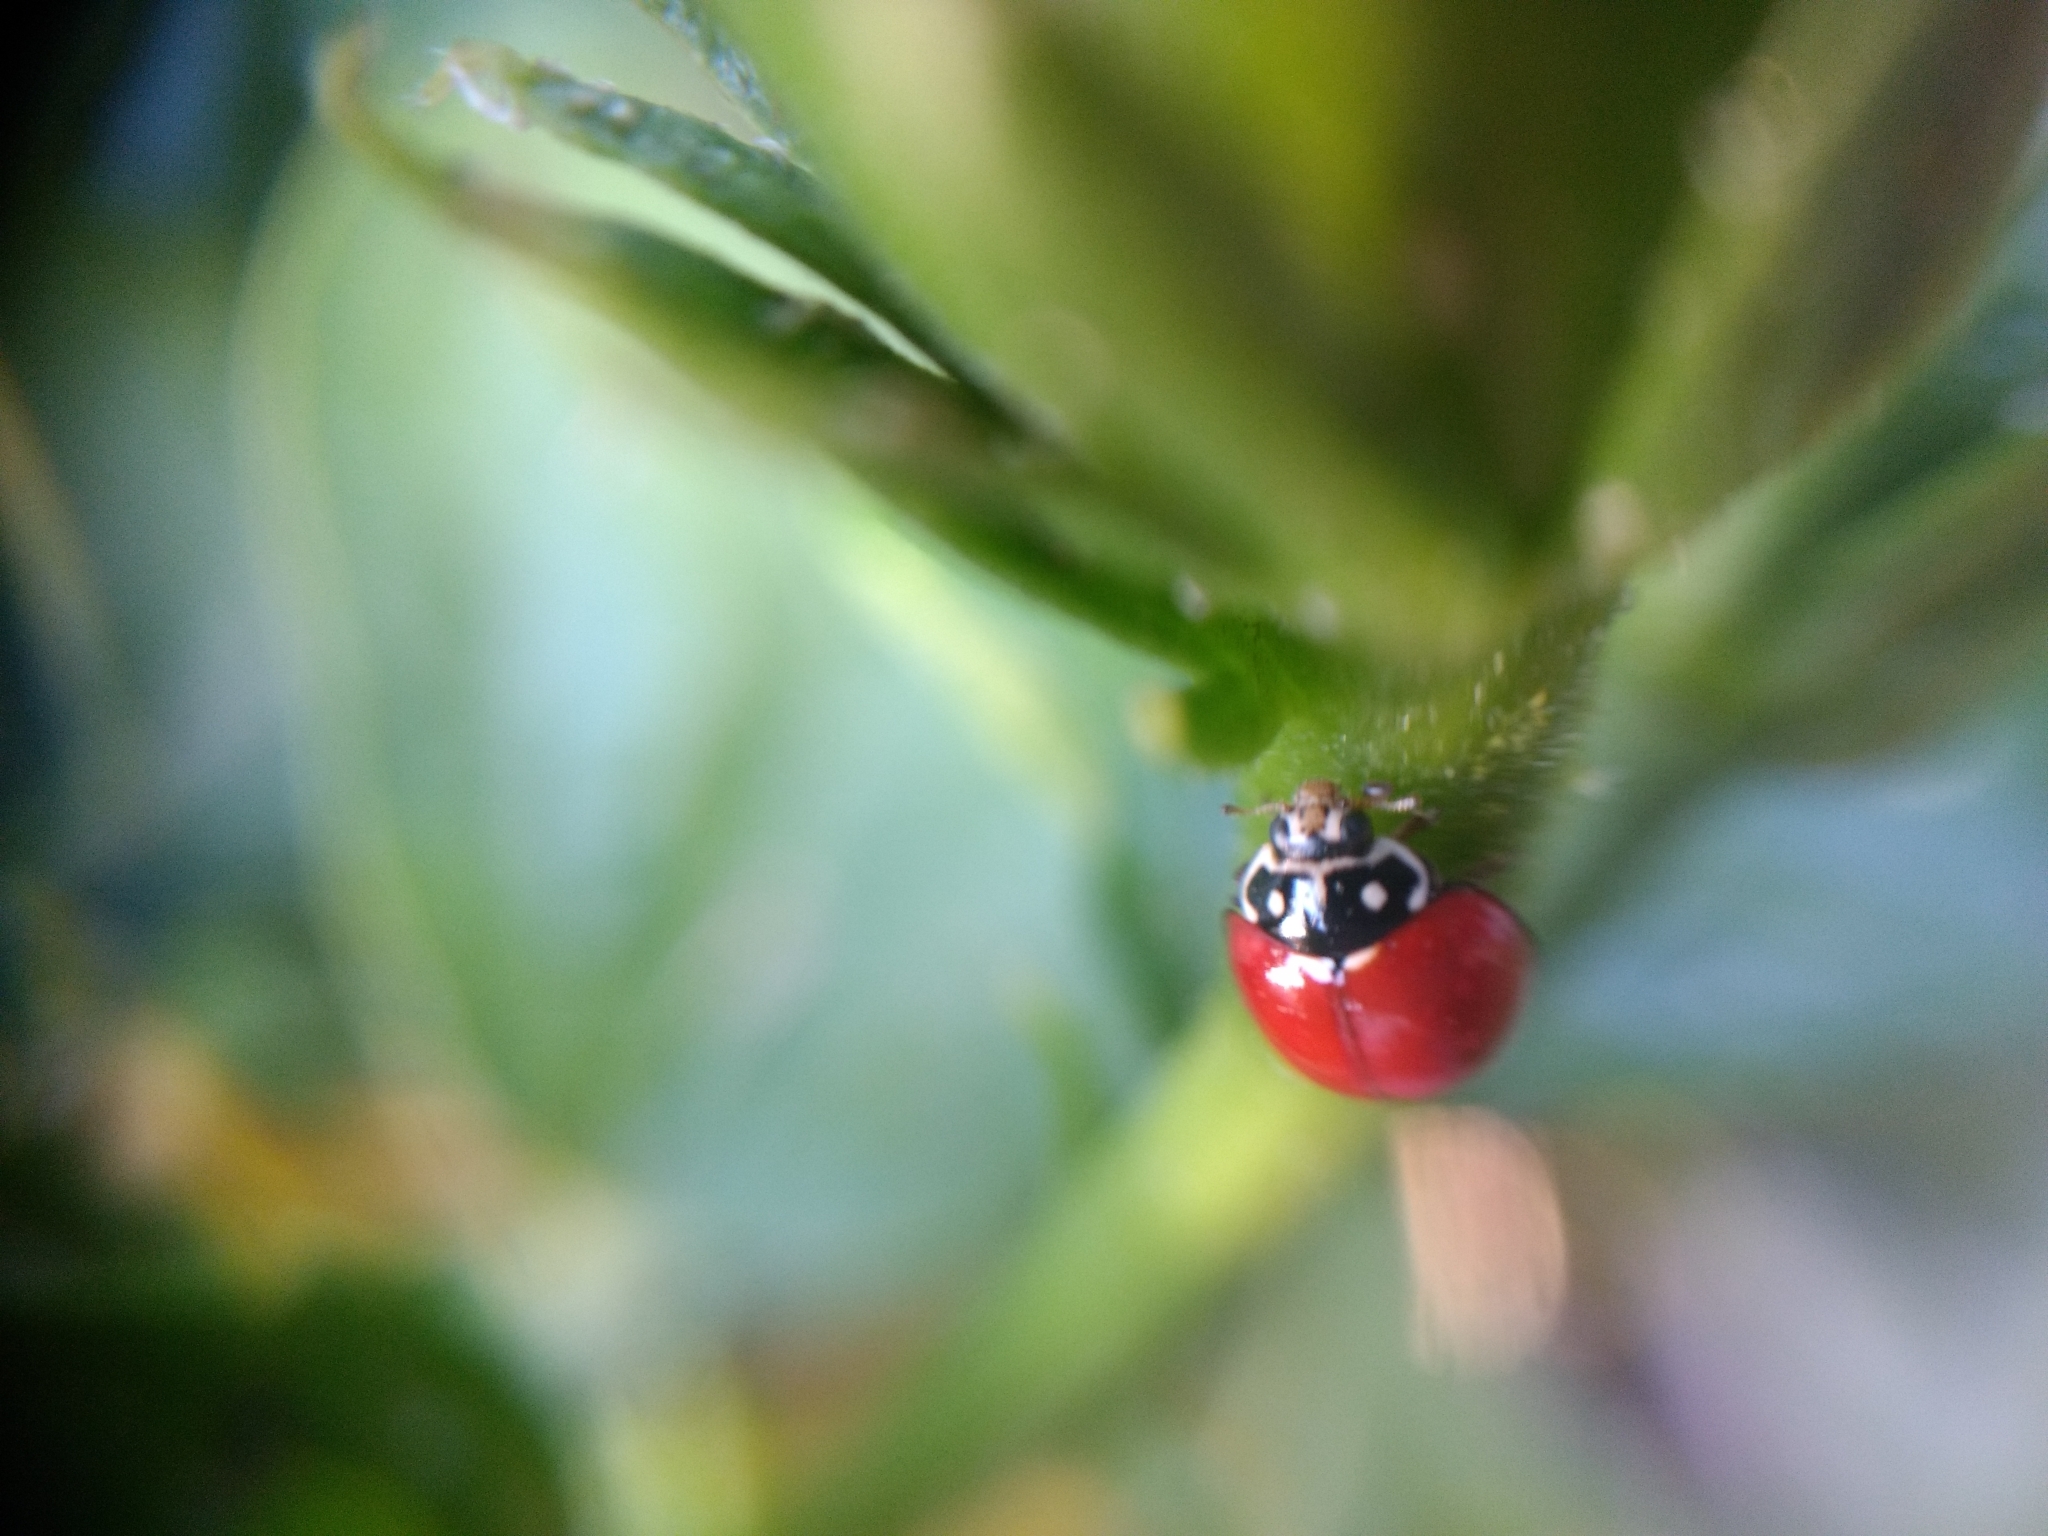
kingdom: Animalia
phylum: Arthropoda
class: Insecta
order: Coleoptera
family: Coccinellidae
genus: Cycloneda
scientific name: Cycloneda sanguinea
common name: Ladybird beetle
